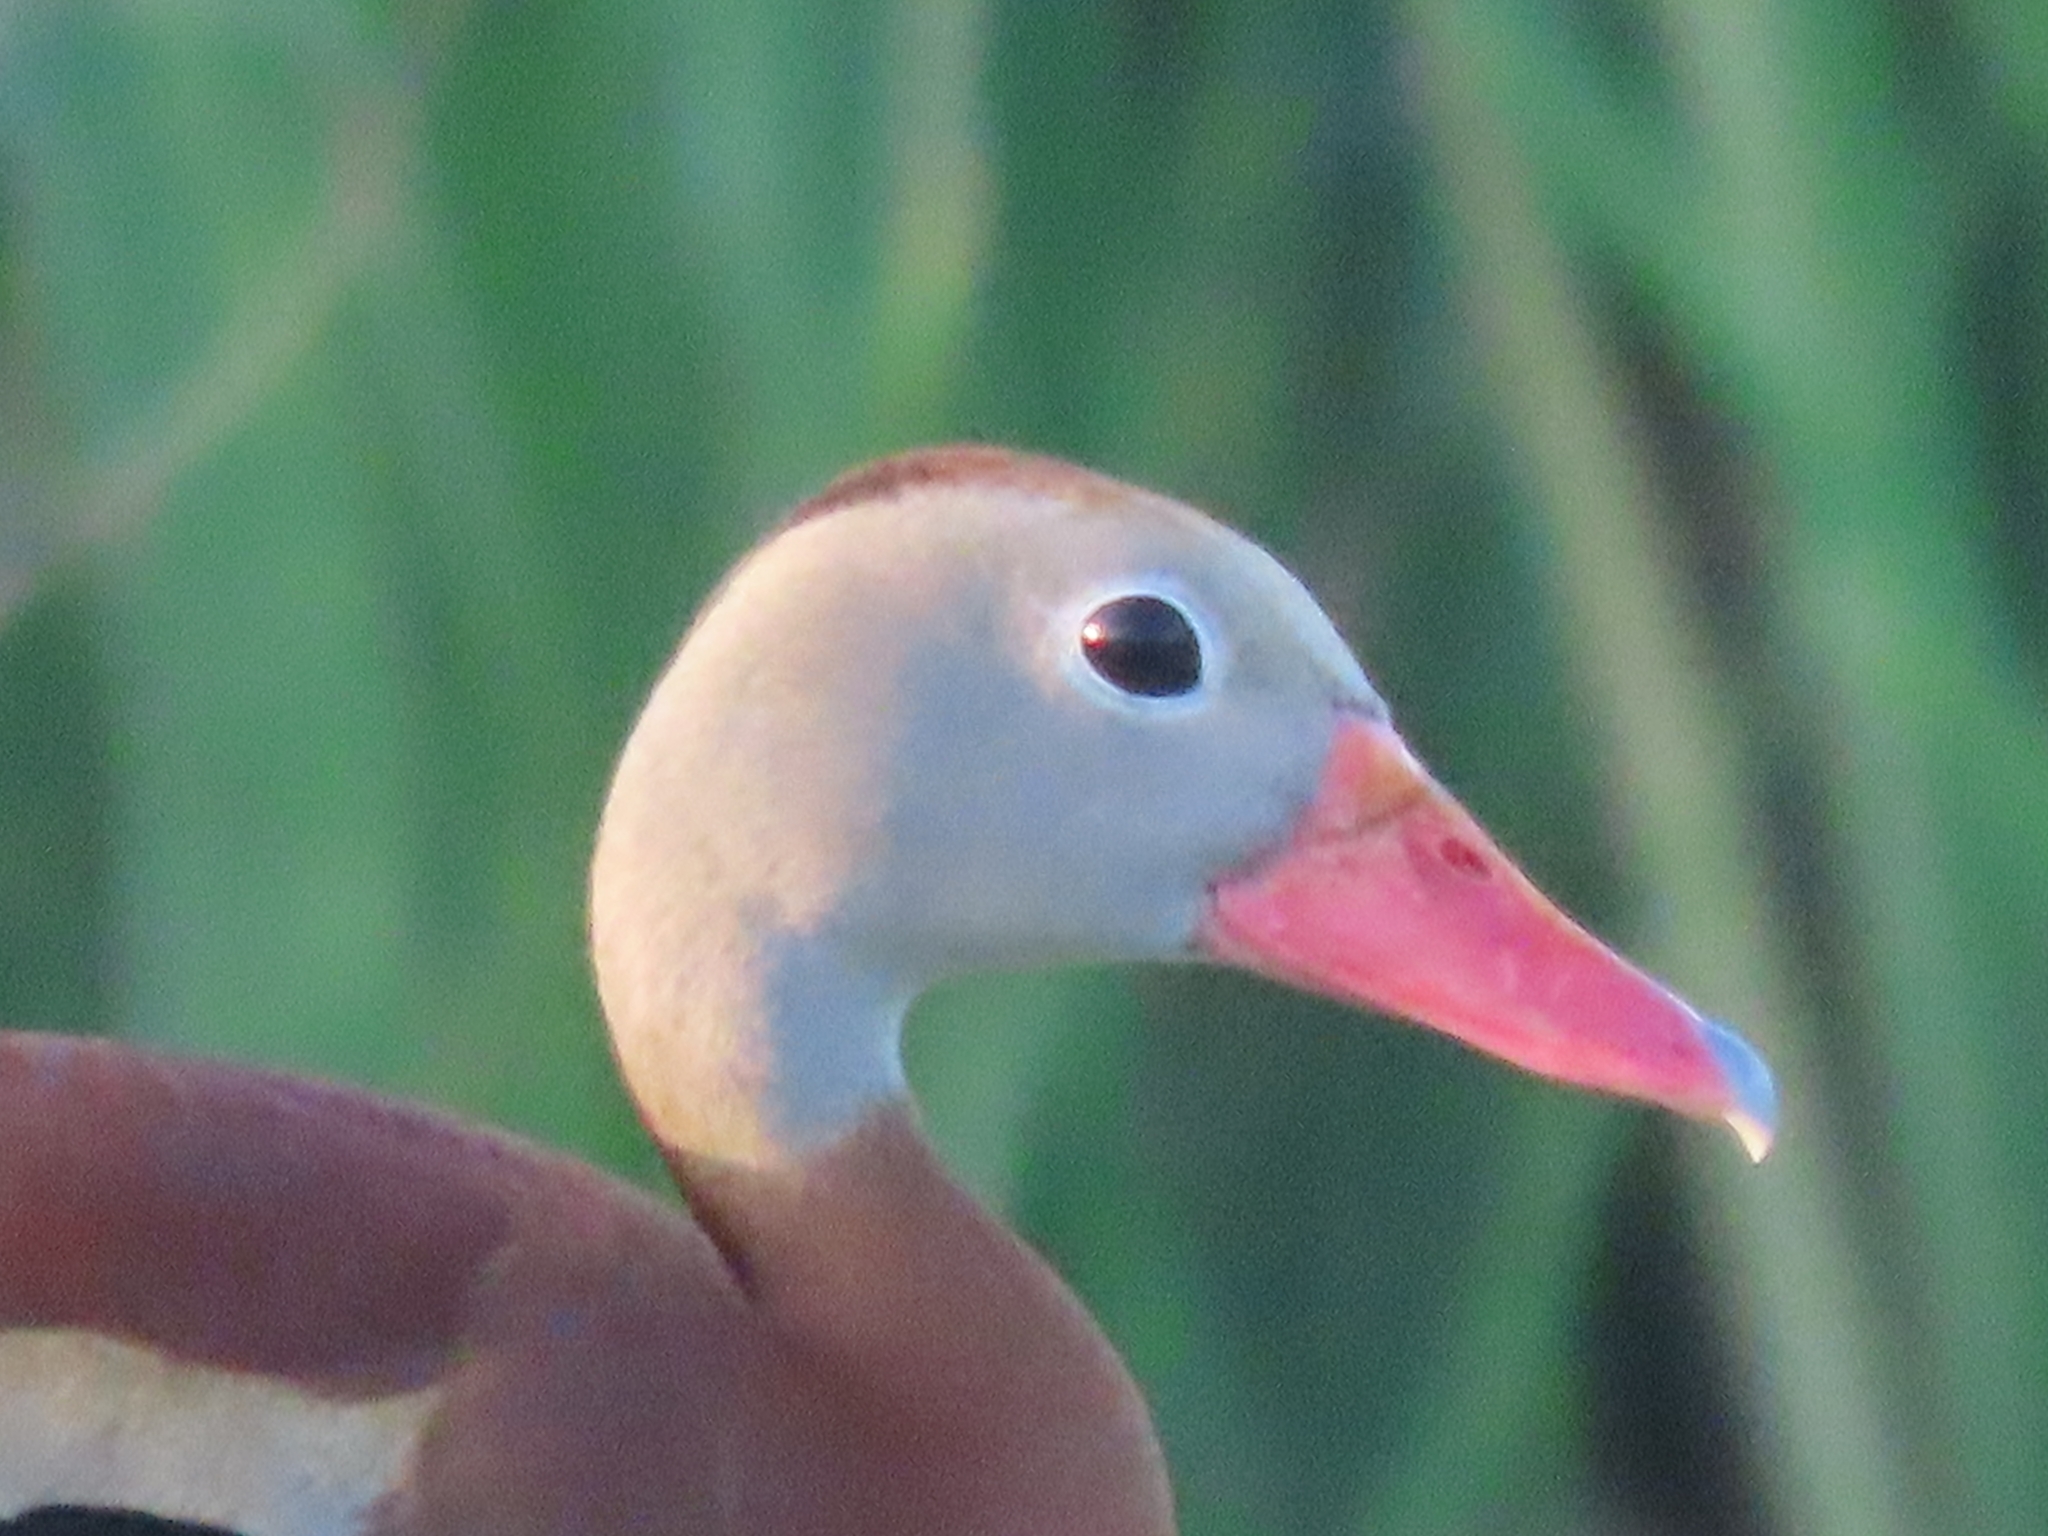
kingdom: Animalia
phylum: Chordata
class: Aves
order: Anseriformes
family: Anatidae
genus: Dendrocygna
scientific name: Dendrocygna autumnalis
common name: Black-bellied whistling duck
